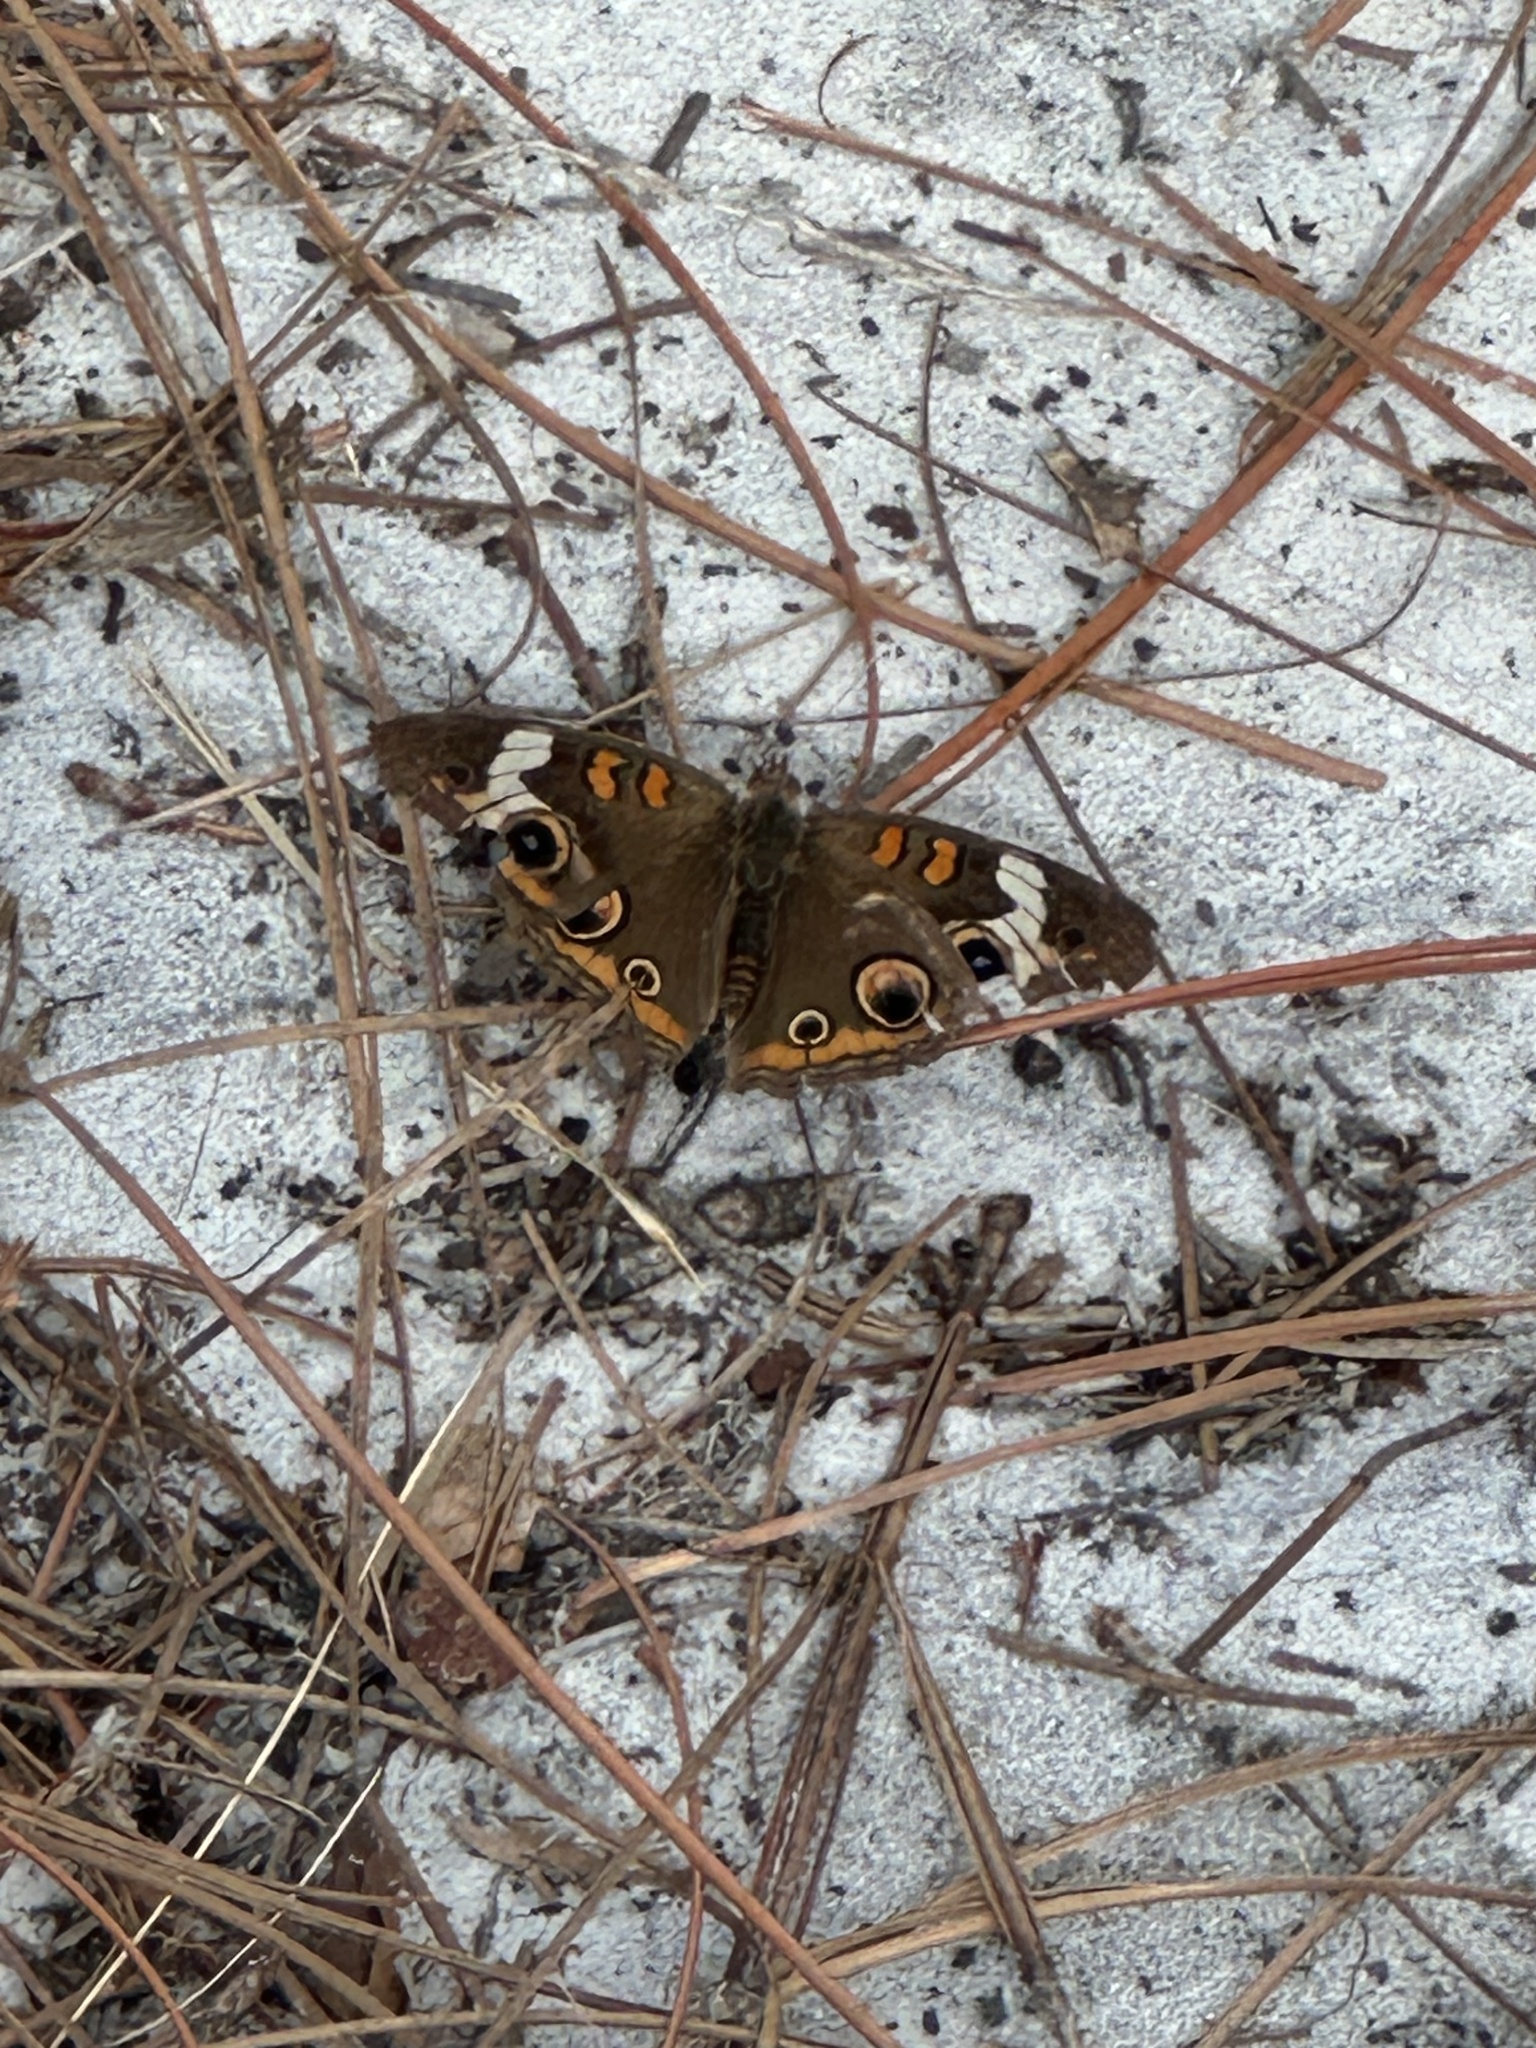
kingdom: Animalia
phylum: Arthropoda
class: Insecta
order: Lepidoptera
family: Nymphalidae
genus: Junonia
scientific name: Junonia coenia
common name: Common buckeye
